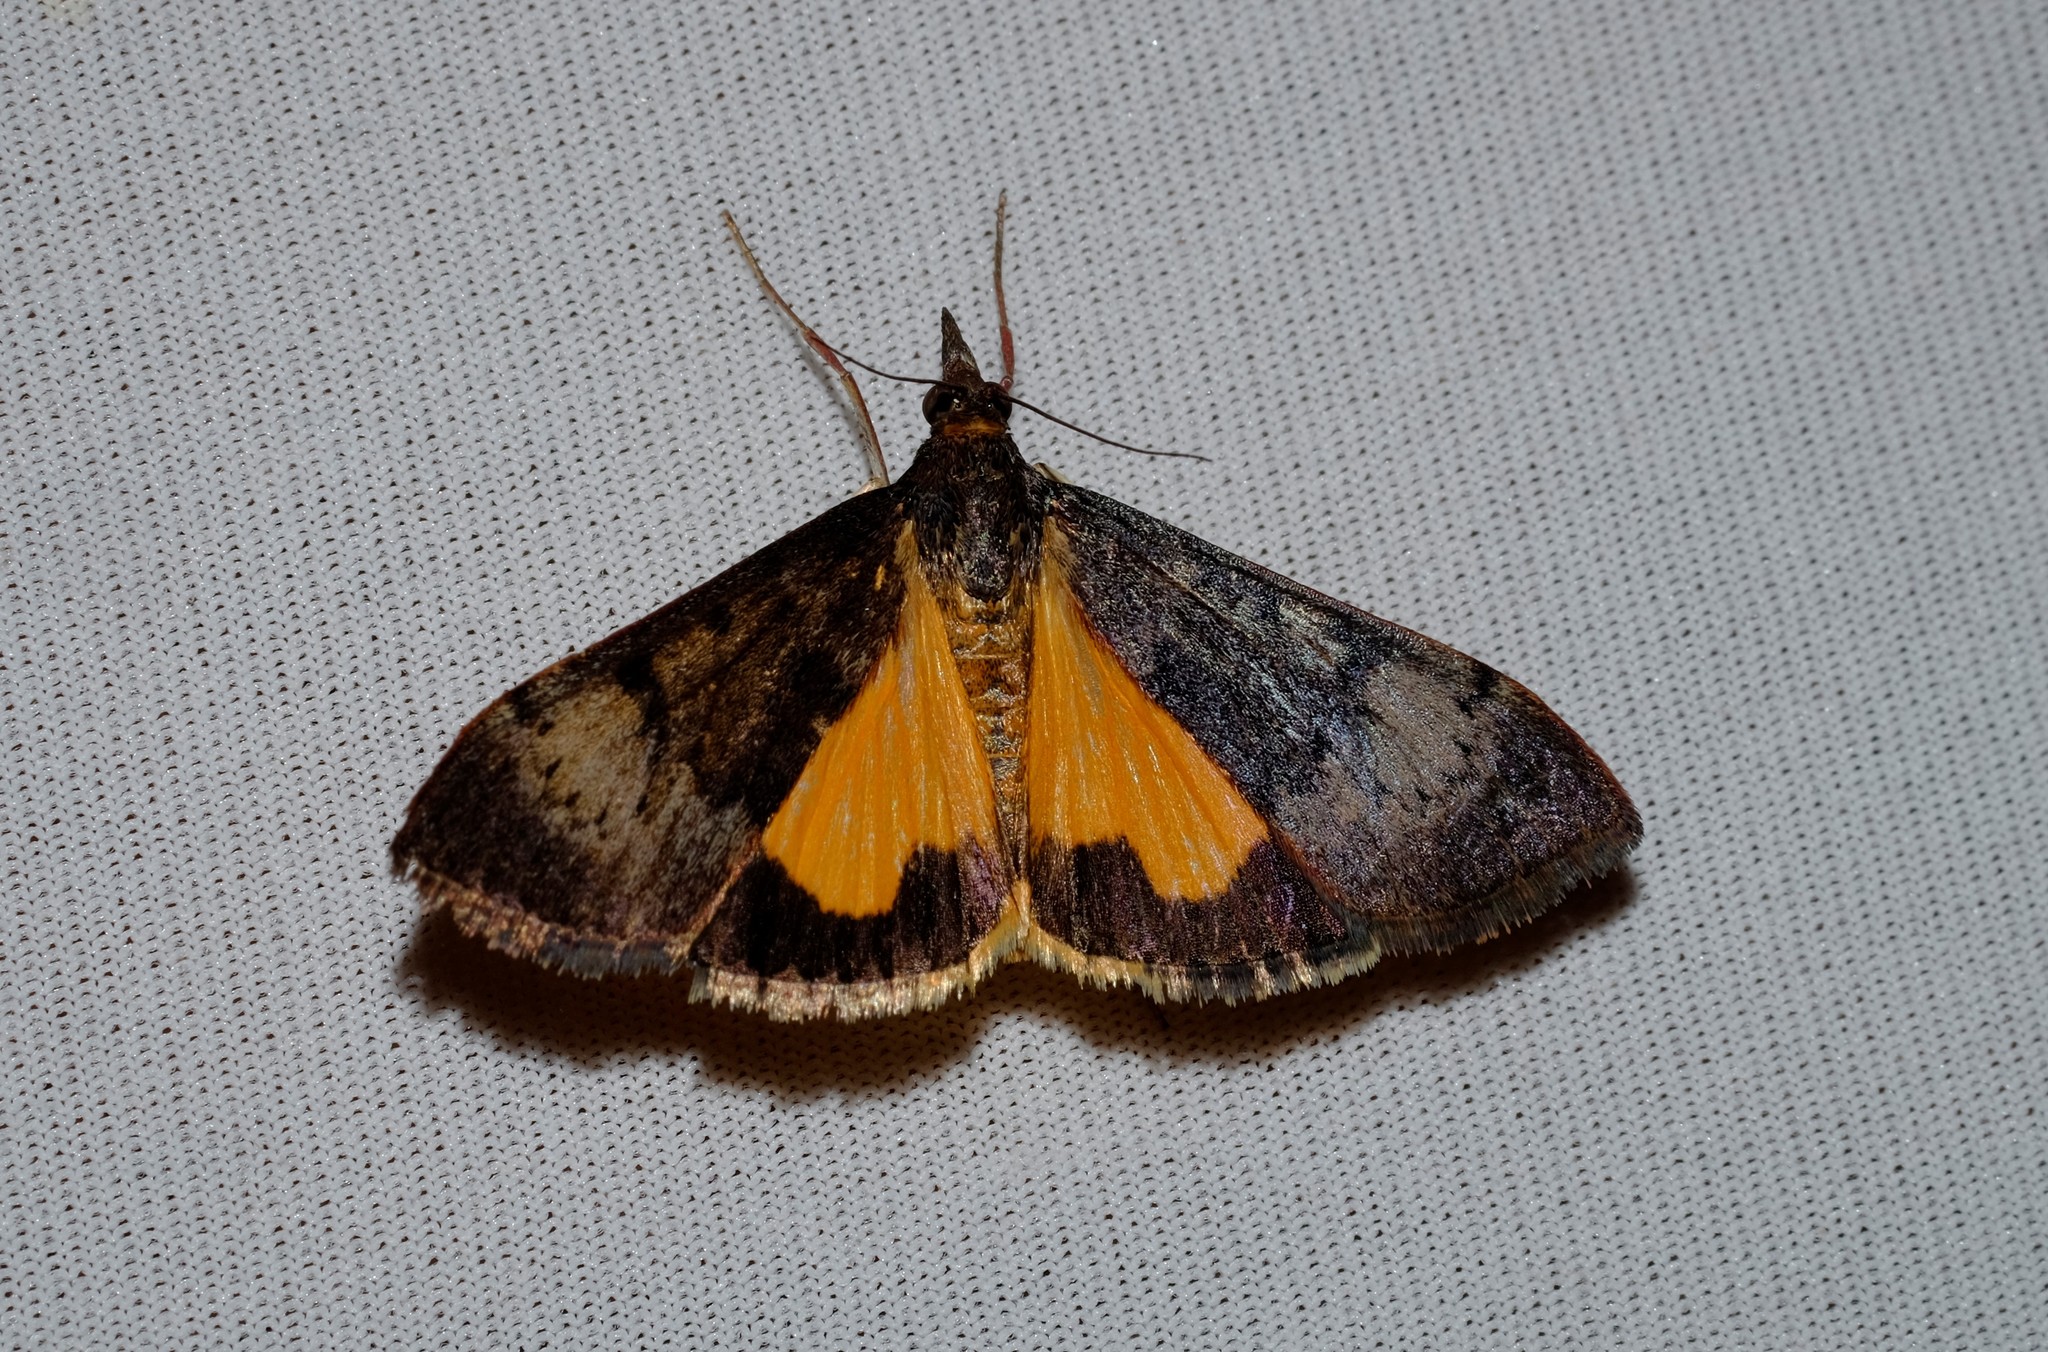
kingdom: Animalia
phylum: Arthropoda
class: Insecta
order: Lepidoptera
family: Crambidae
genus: Uresiphita
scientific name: Uresiphita ornithopteralis
